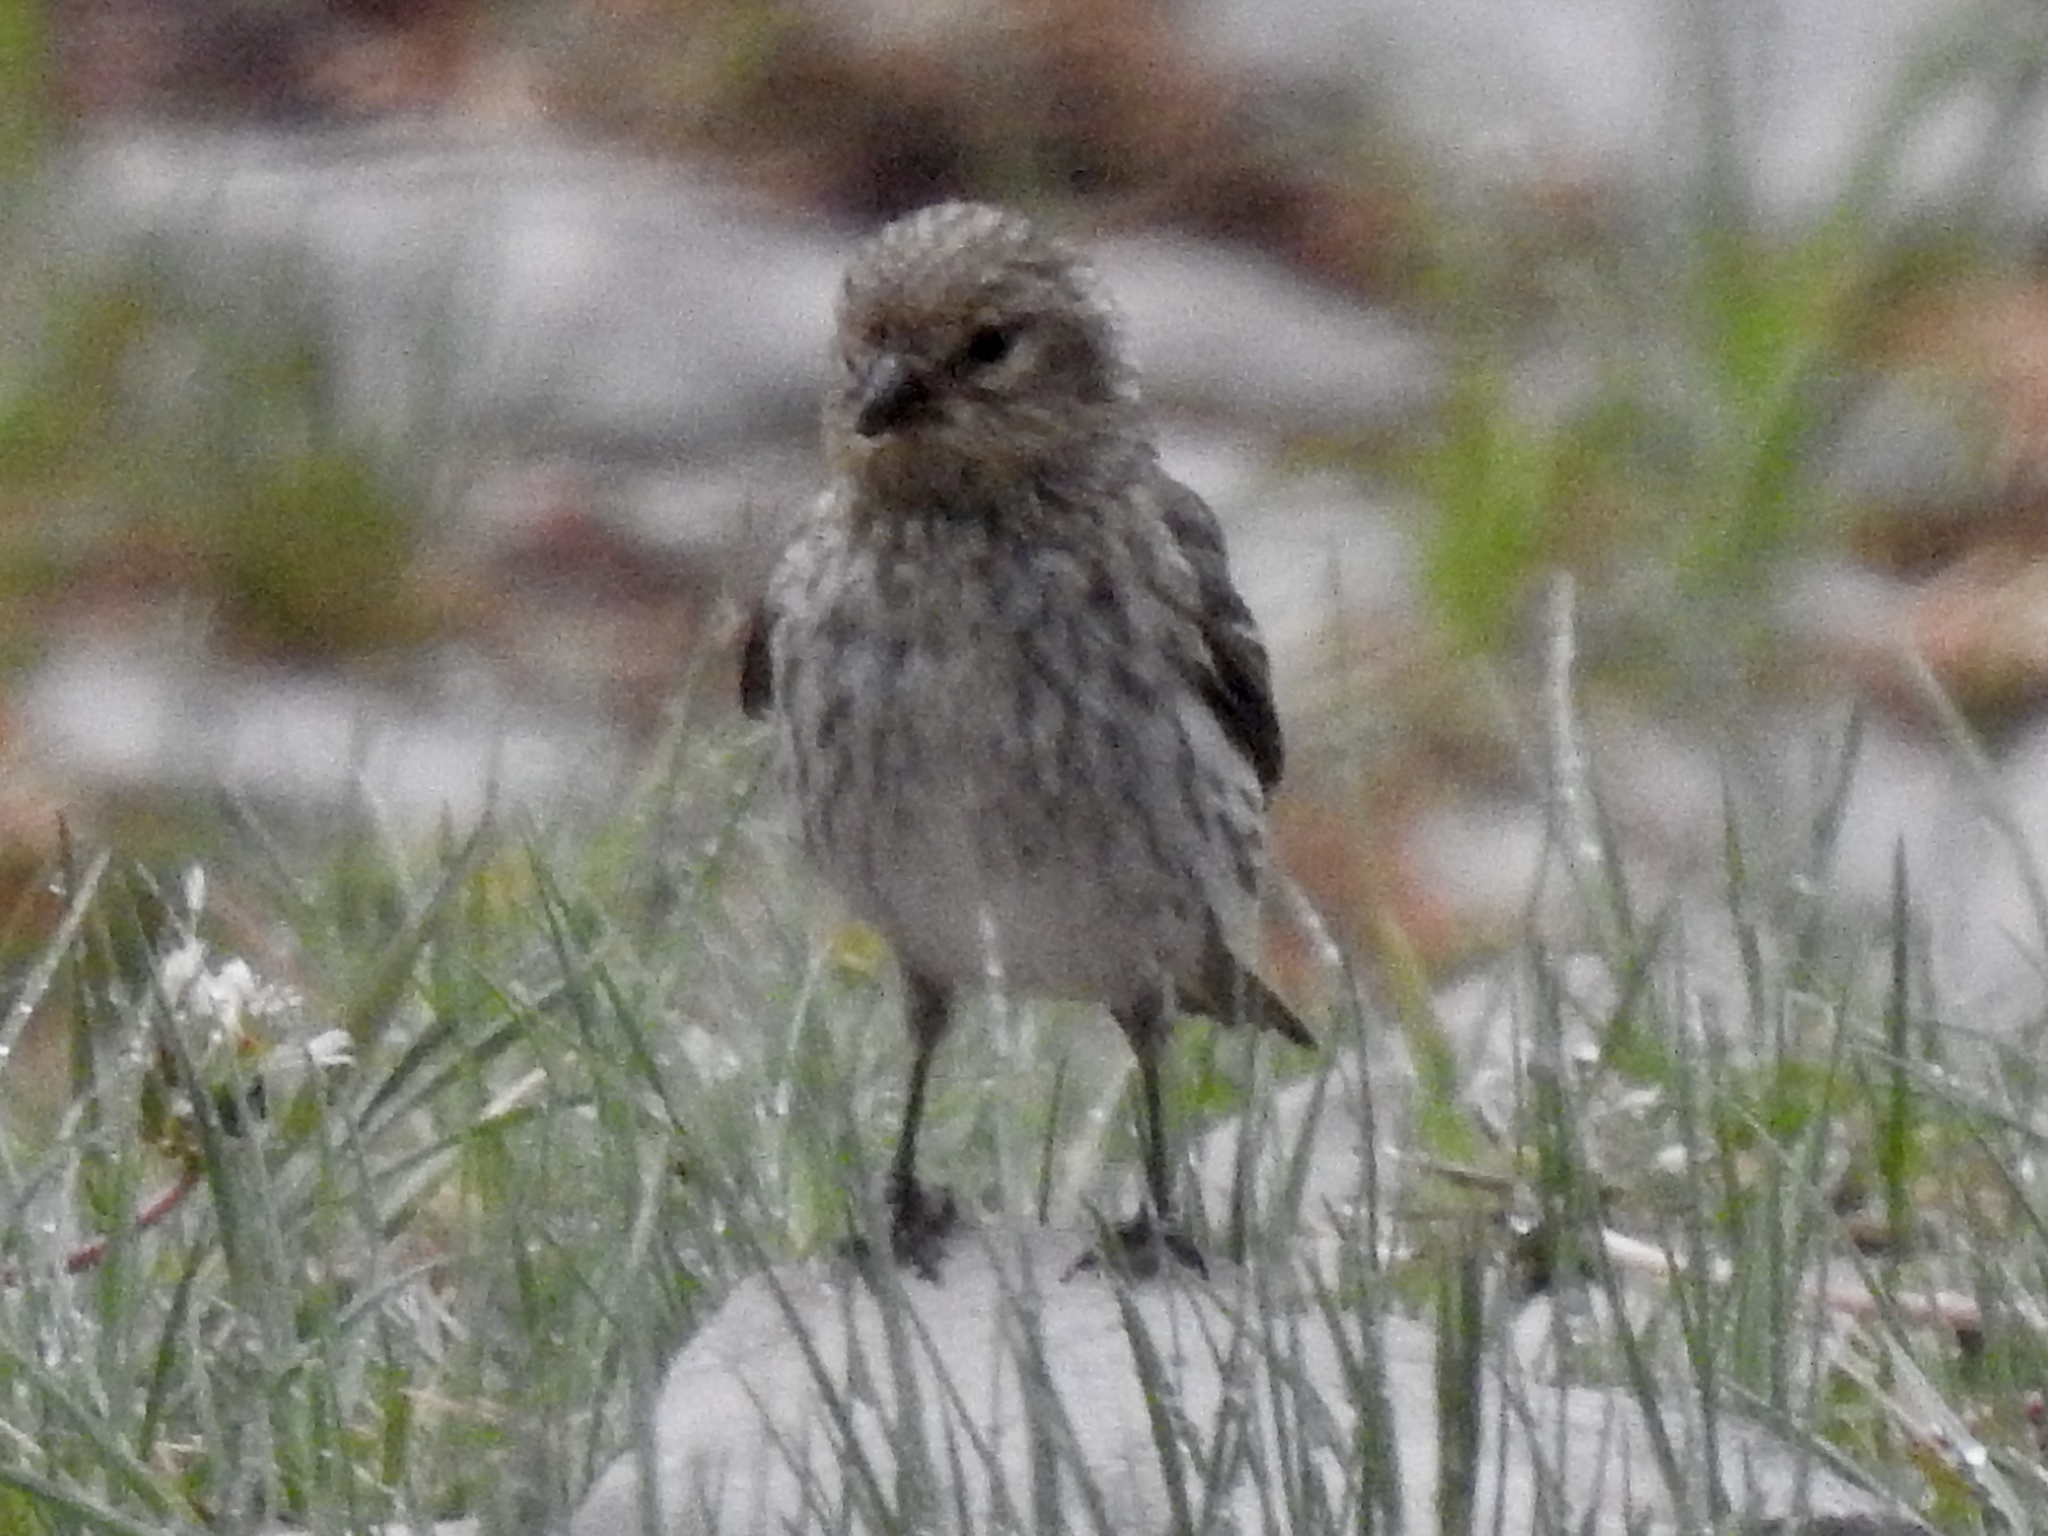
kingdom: Animalia
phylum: Chordata
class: Aves
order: Passeriformes
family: Fringillidae
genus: Spinus
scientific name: Spinus pinus
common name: Pine siskin
